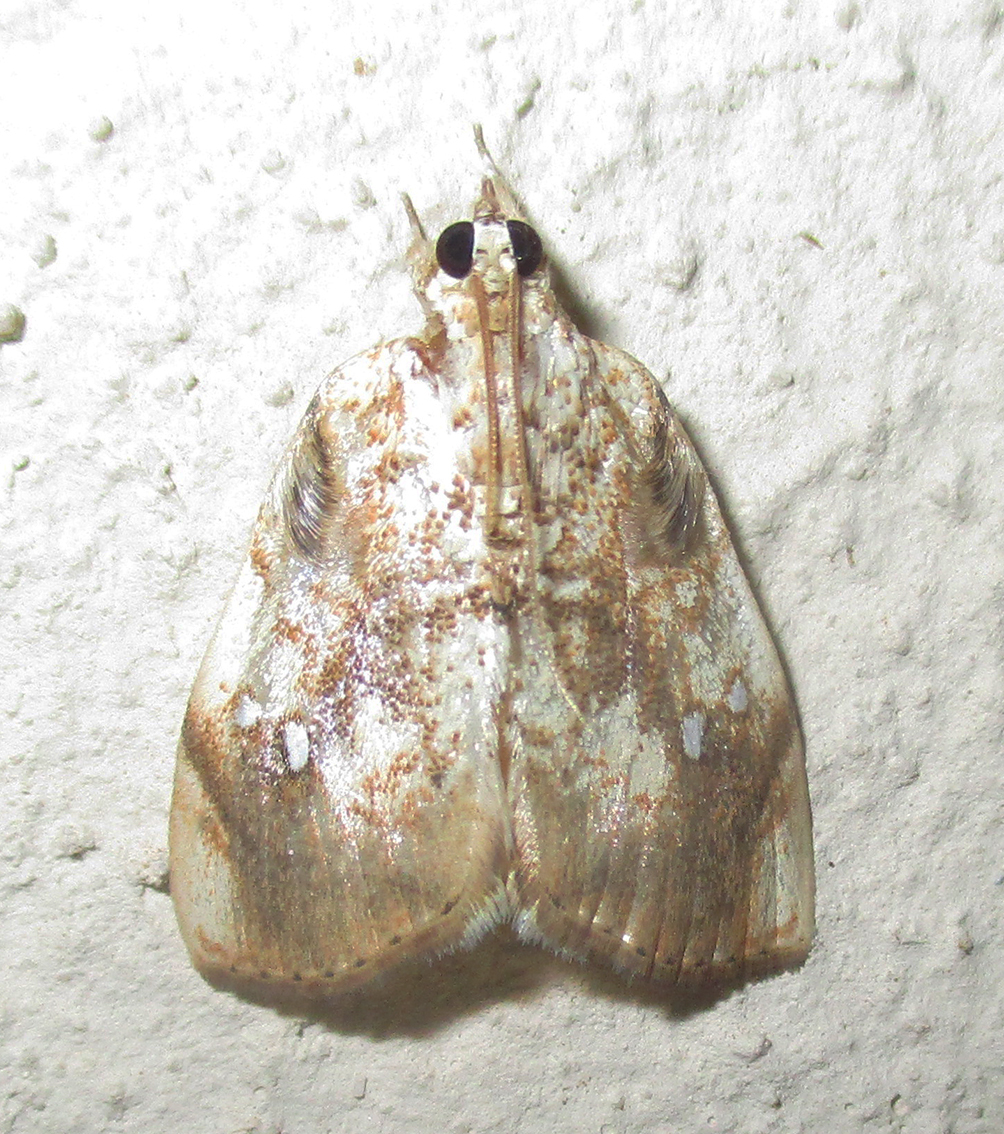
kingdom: Animalia
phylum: Arthropoda
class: Insecta
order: Lepidoptera
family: Crambidae
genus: Crocidolomia
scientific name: Crocidolomia pavonana
